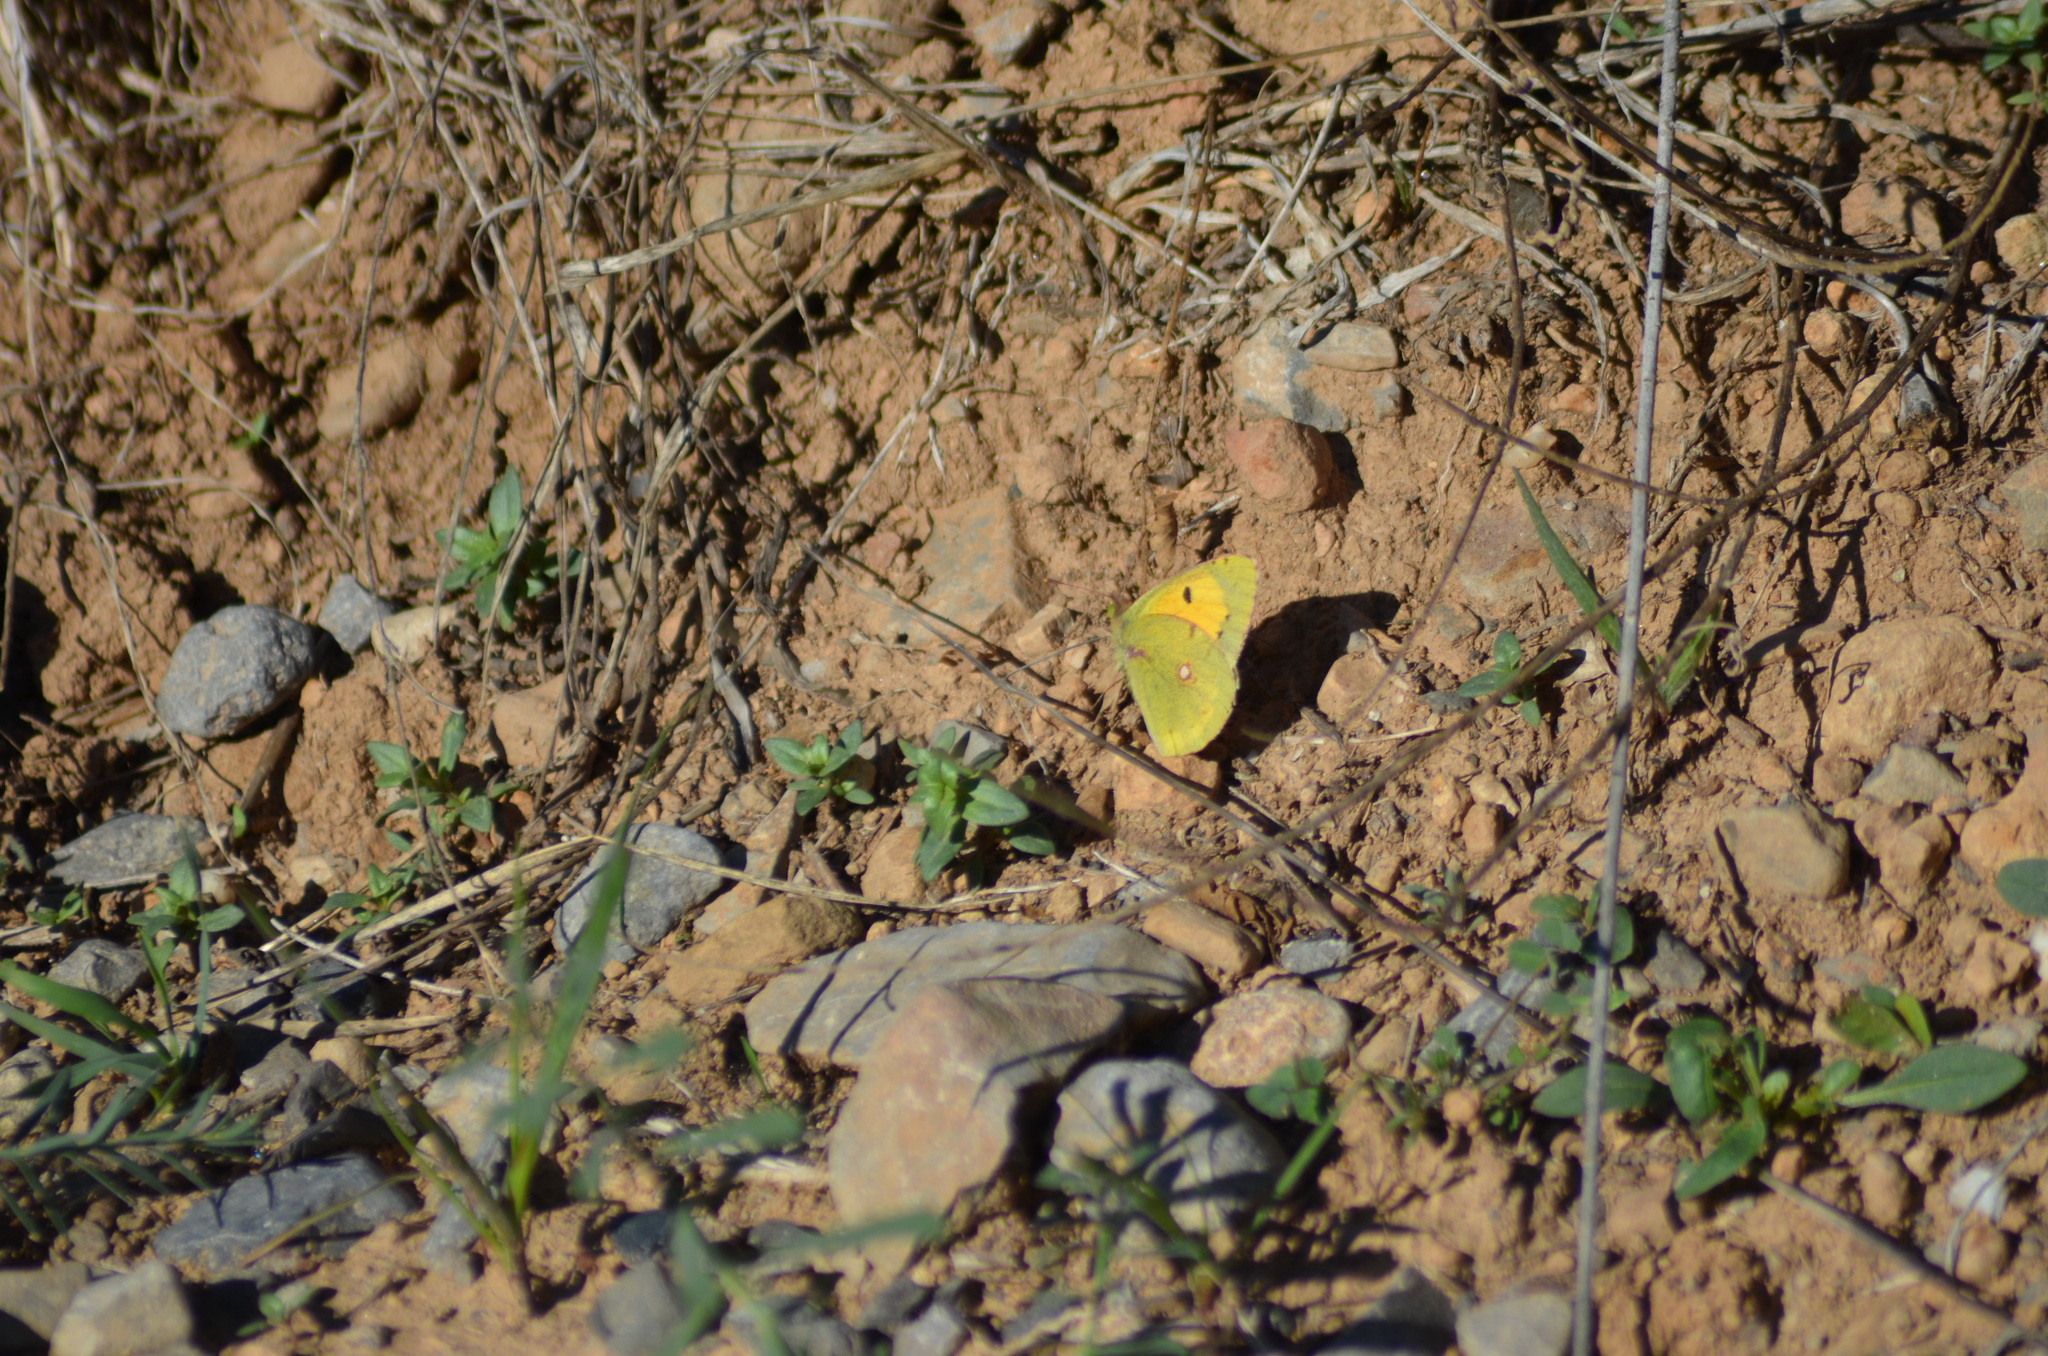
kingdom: Animalia
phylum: Arthropoda
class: Insecta
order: Lepidoptera
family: Pieridae
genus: Colias
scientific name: Colias croceus
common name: Clouded yellow
